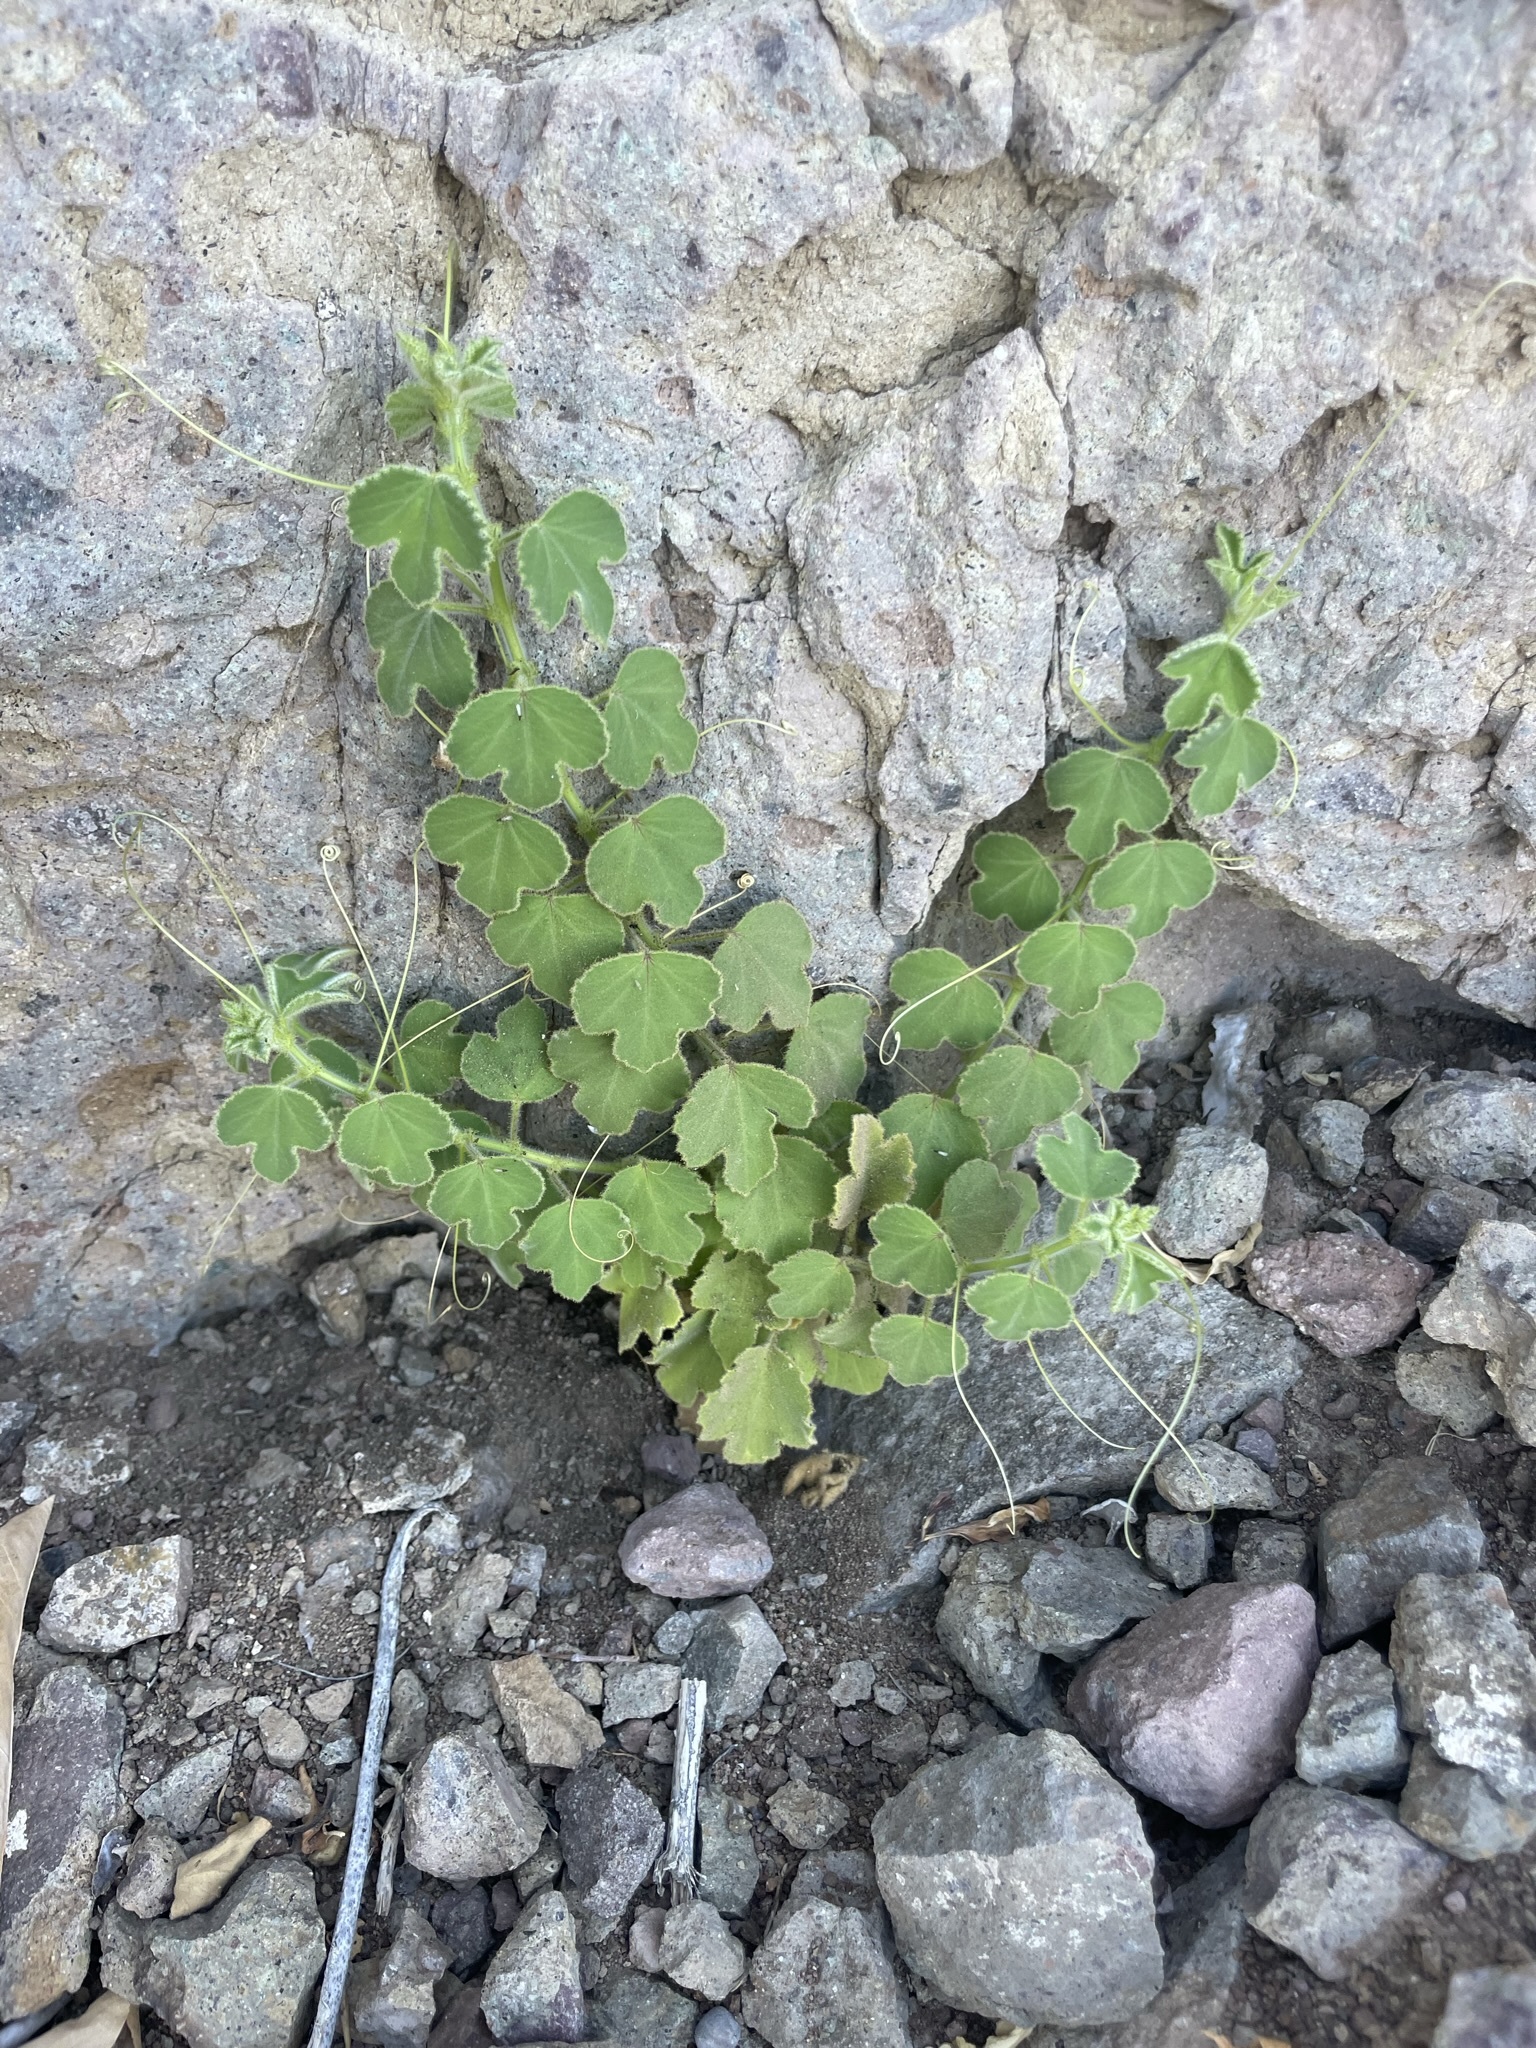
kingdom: Plantae
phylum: Tracheophyta
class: Magnoliopsida
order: Malpighiales
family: Passifloraceae
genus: Passiflora
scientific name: Passiflora arida
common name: Desert passionflower
